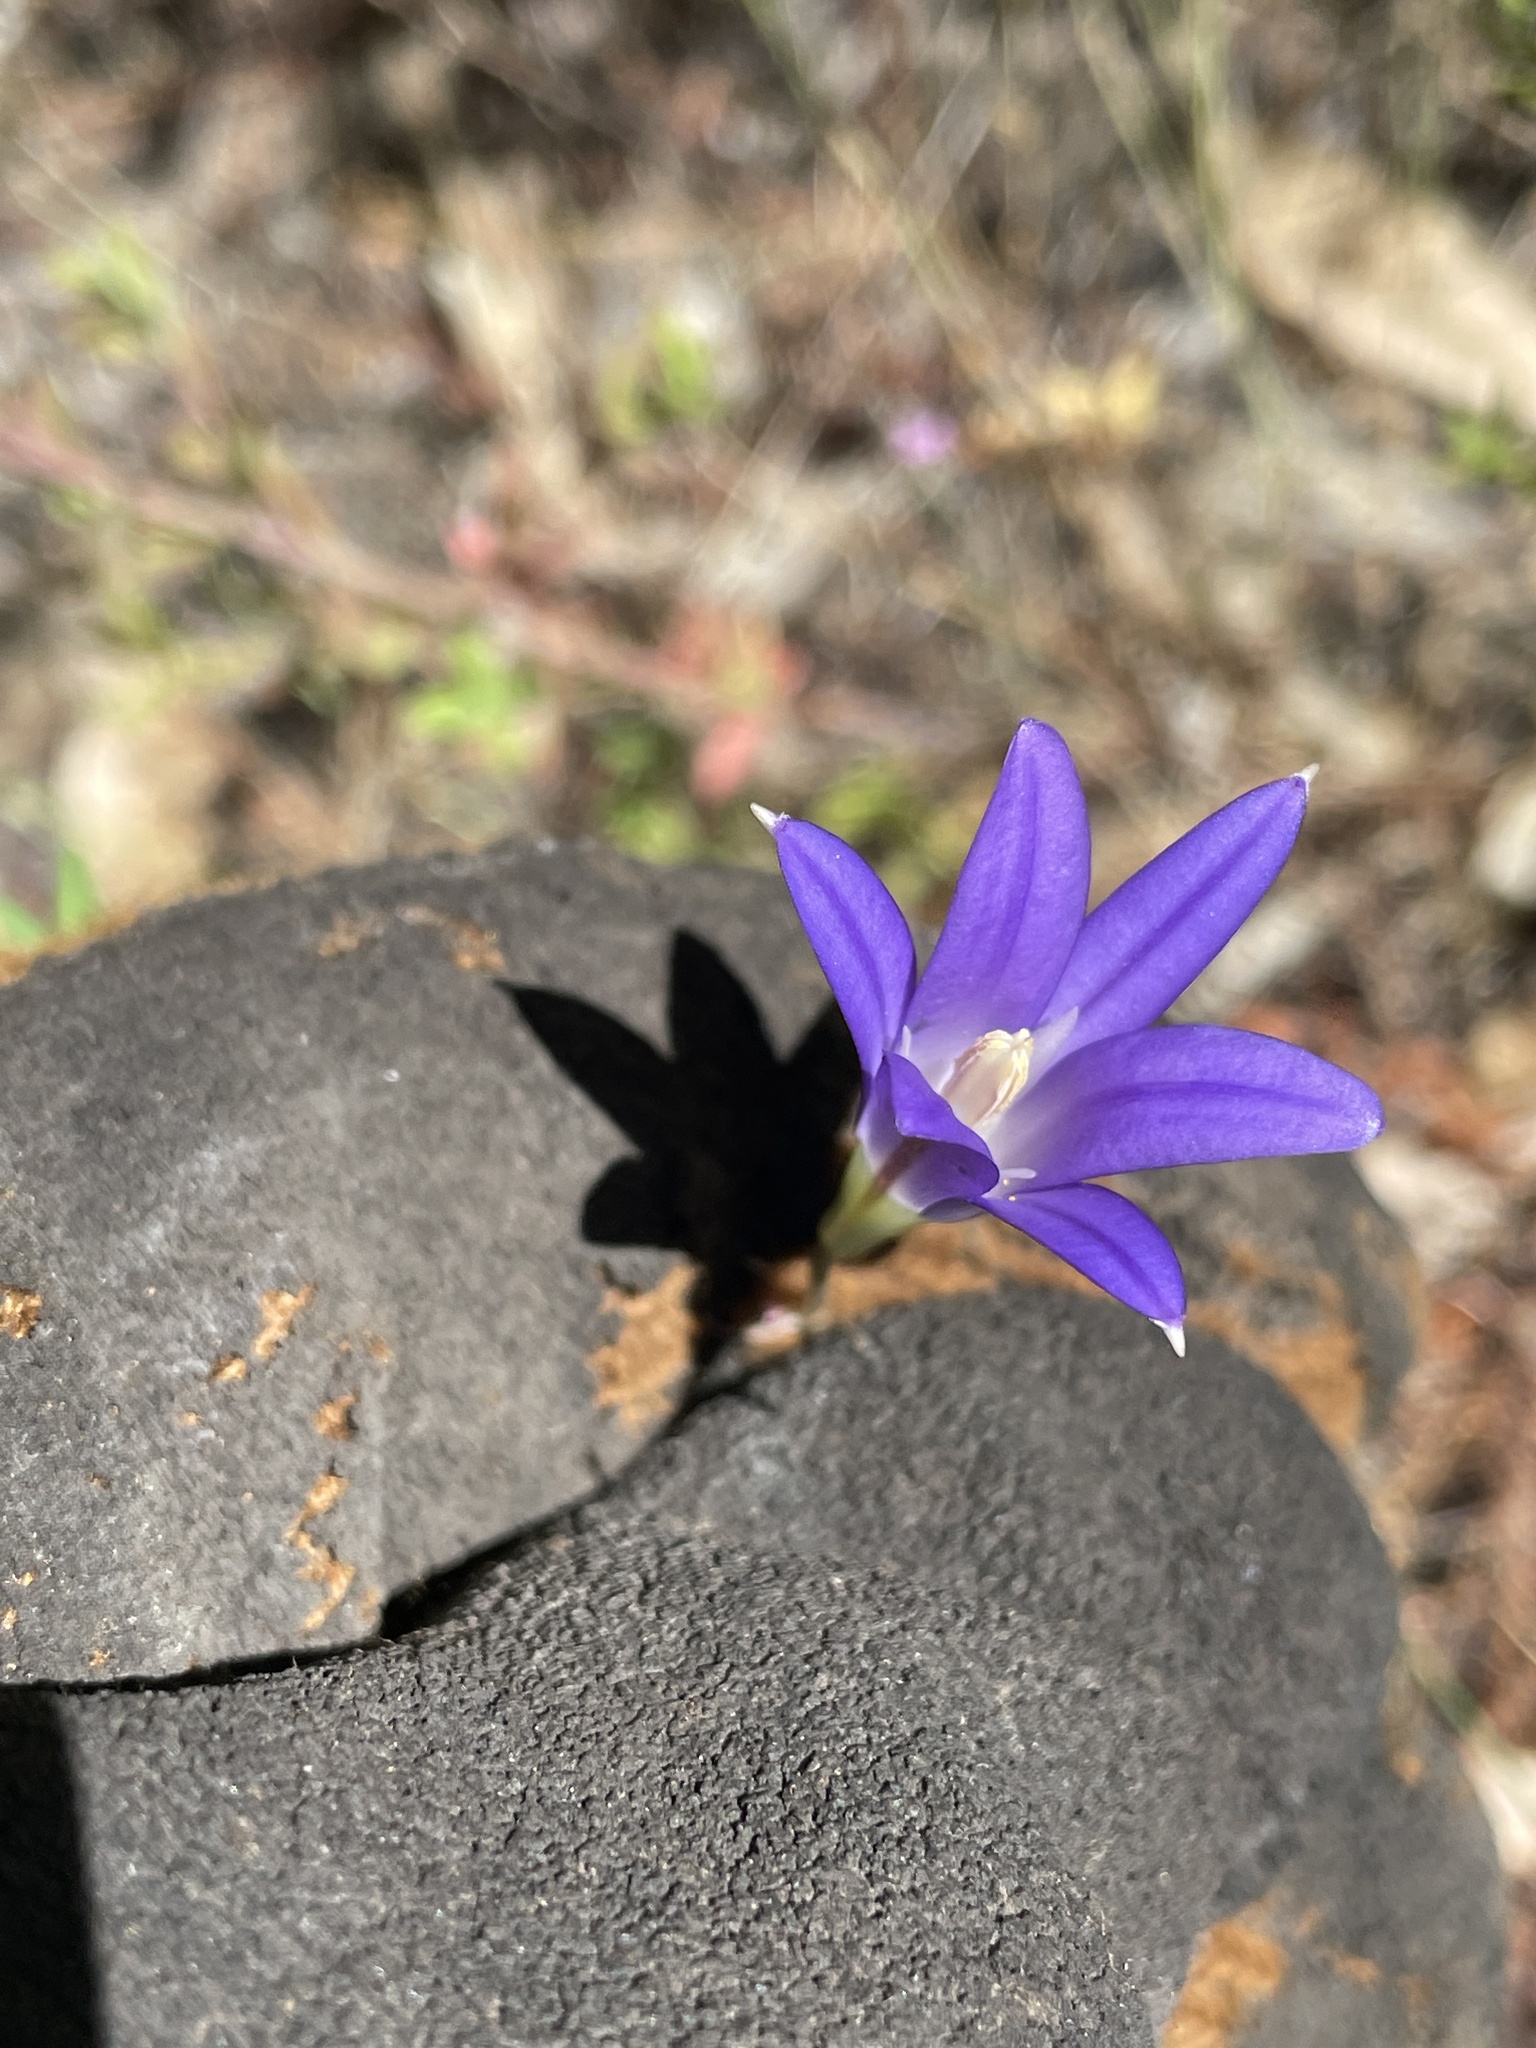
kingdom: Plantae
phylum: Tracheophyta
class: Liliopsida
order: Asparagales
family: Asparagaceae
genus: Brodiaea
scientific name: Brodiaea elegans
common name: Elegant cluster-lily
